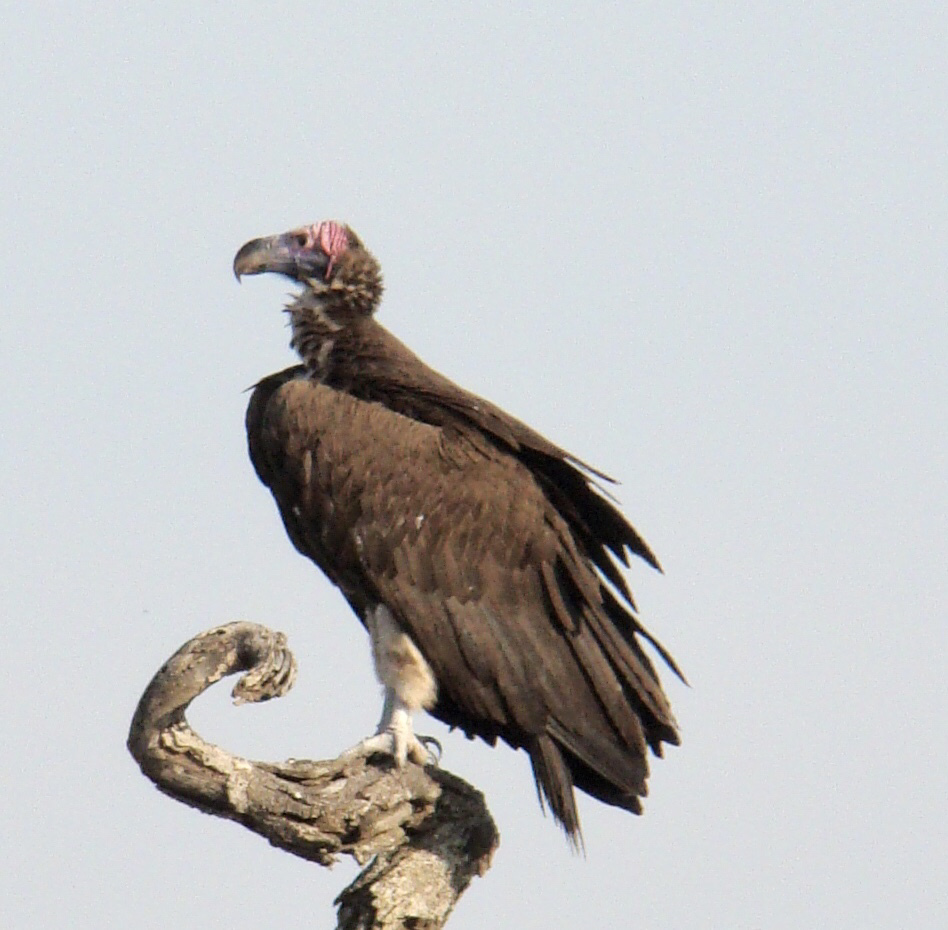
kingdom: Animalia
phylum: Chordata
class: Aves
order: Accipitriformes
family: Accipitridae
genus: Torgos
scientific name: Torgos tracheliotos
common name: Lappet-faced vulture
